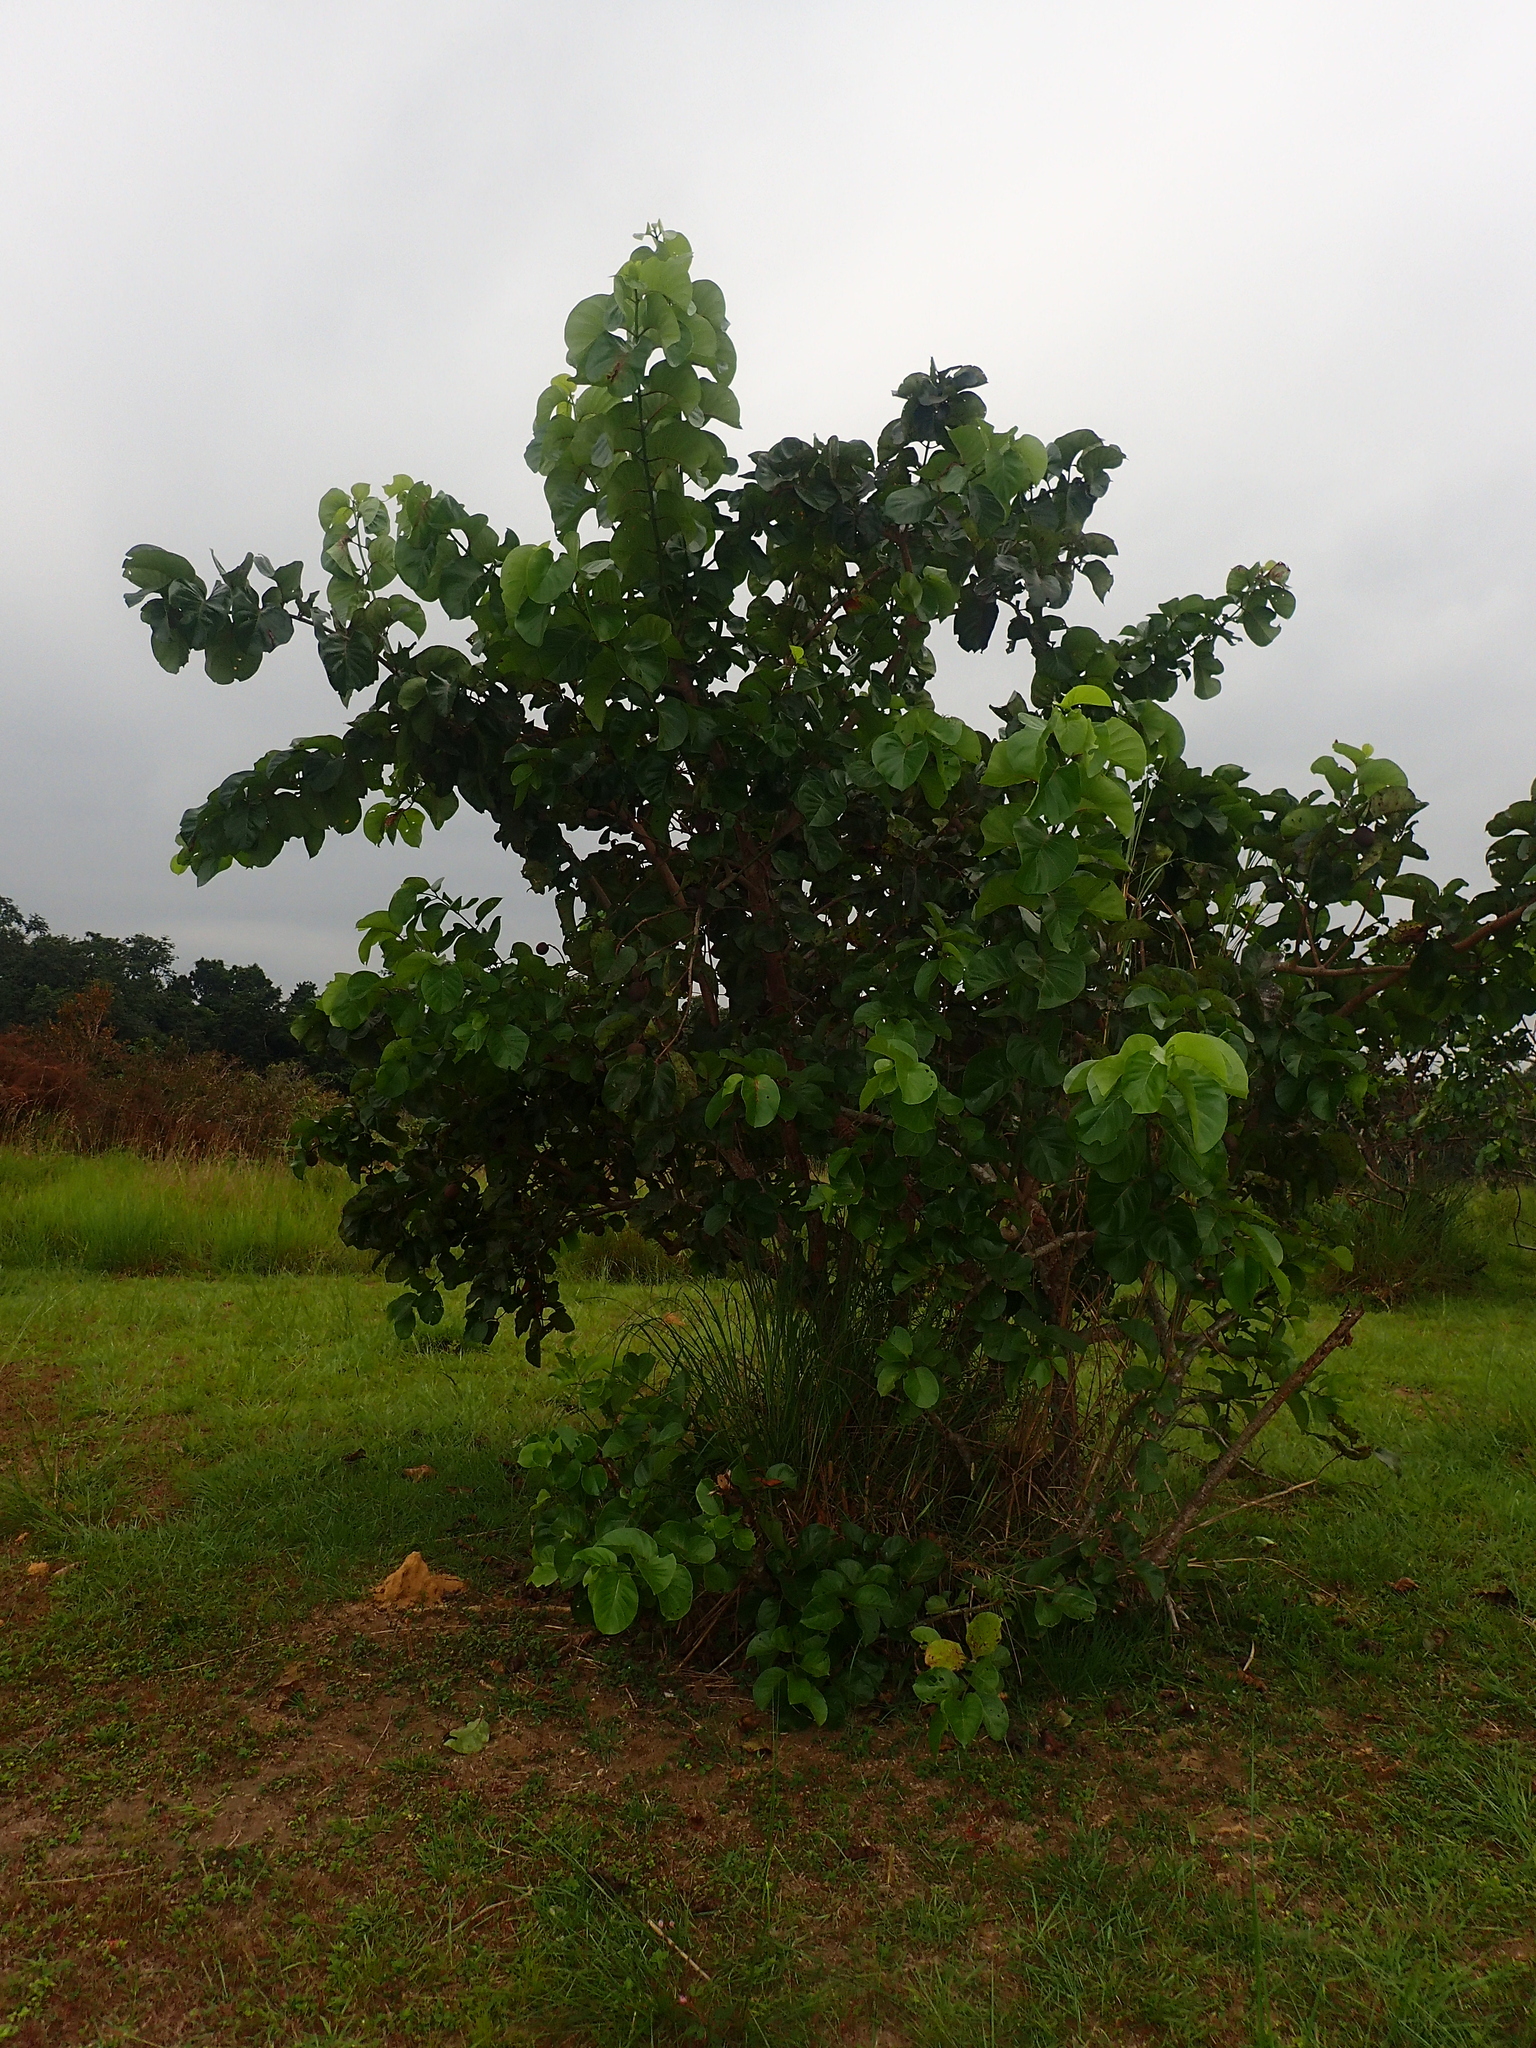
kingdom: Plantae
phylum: Tracheophyta
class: Magnoliopsida
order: Gentianales
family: Rubiaceae
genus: Nauclea
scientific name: Nauclea latifolia
